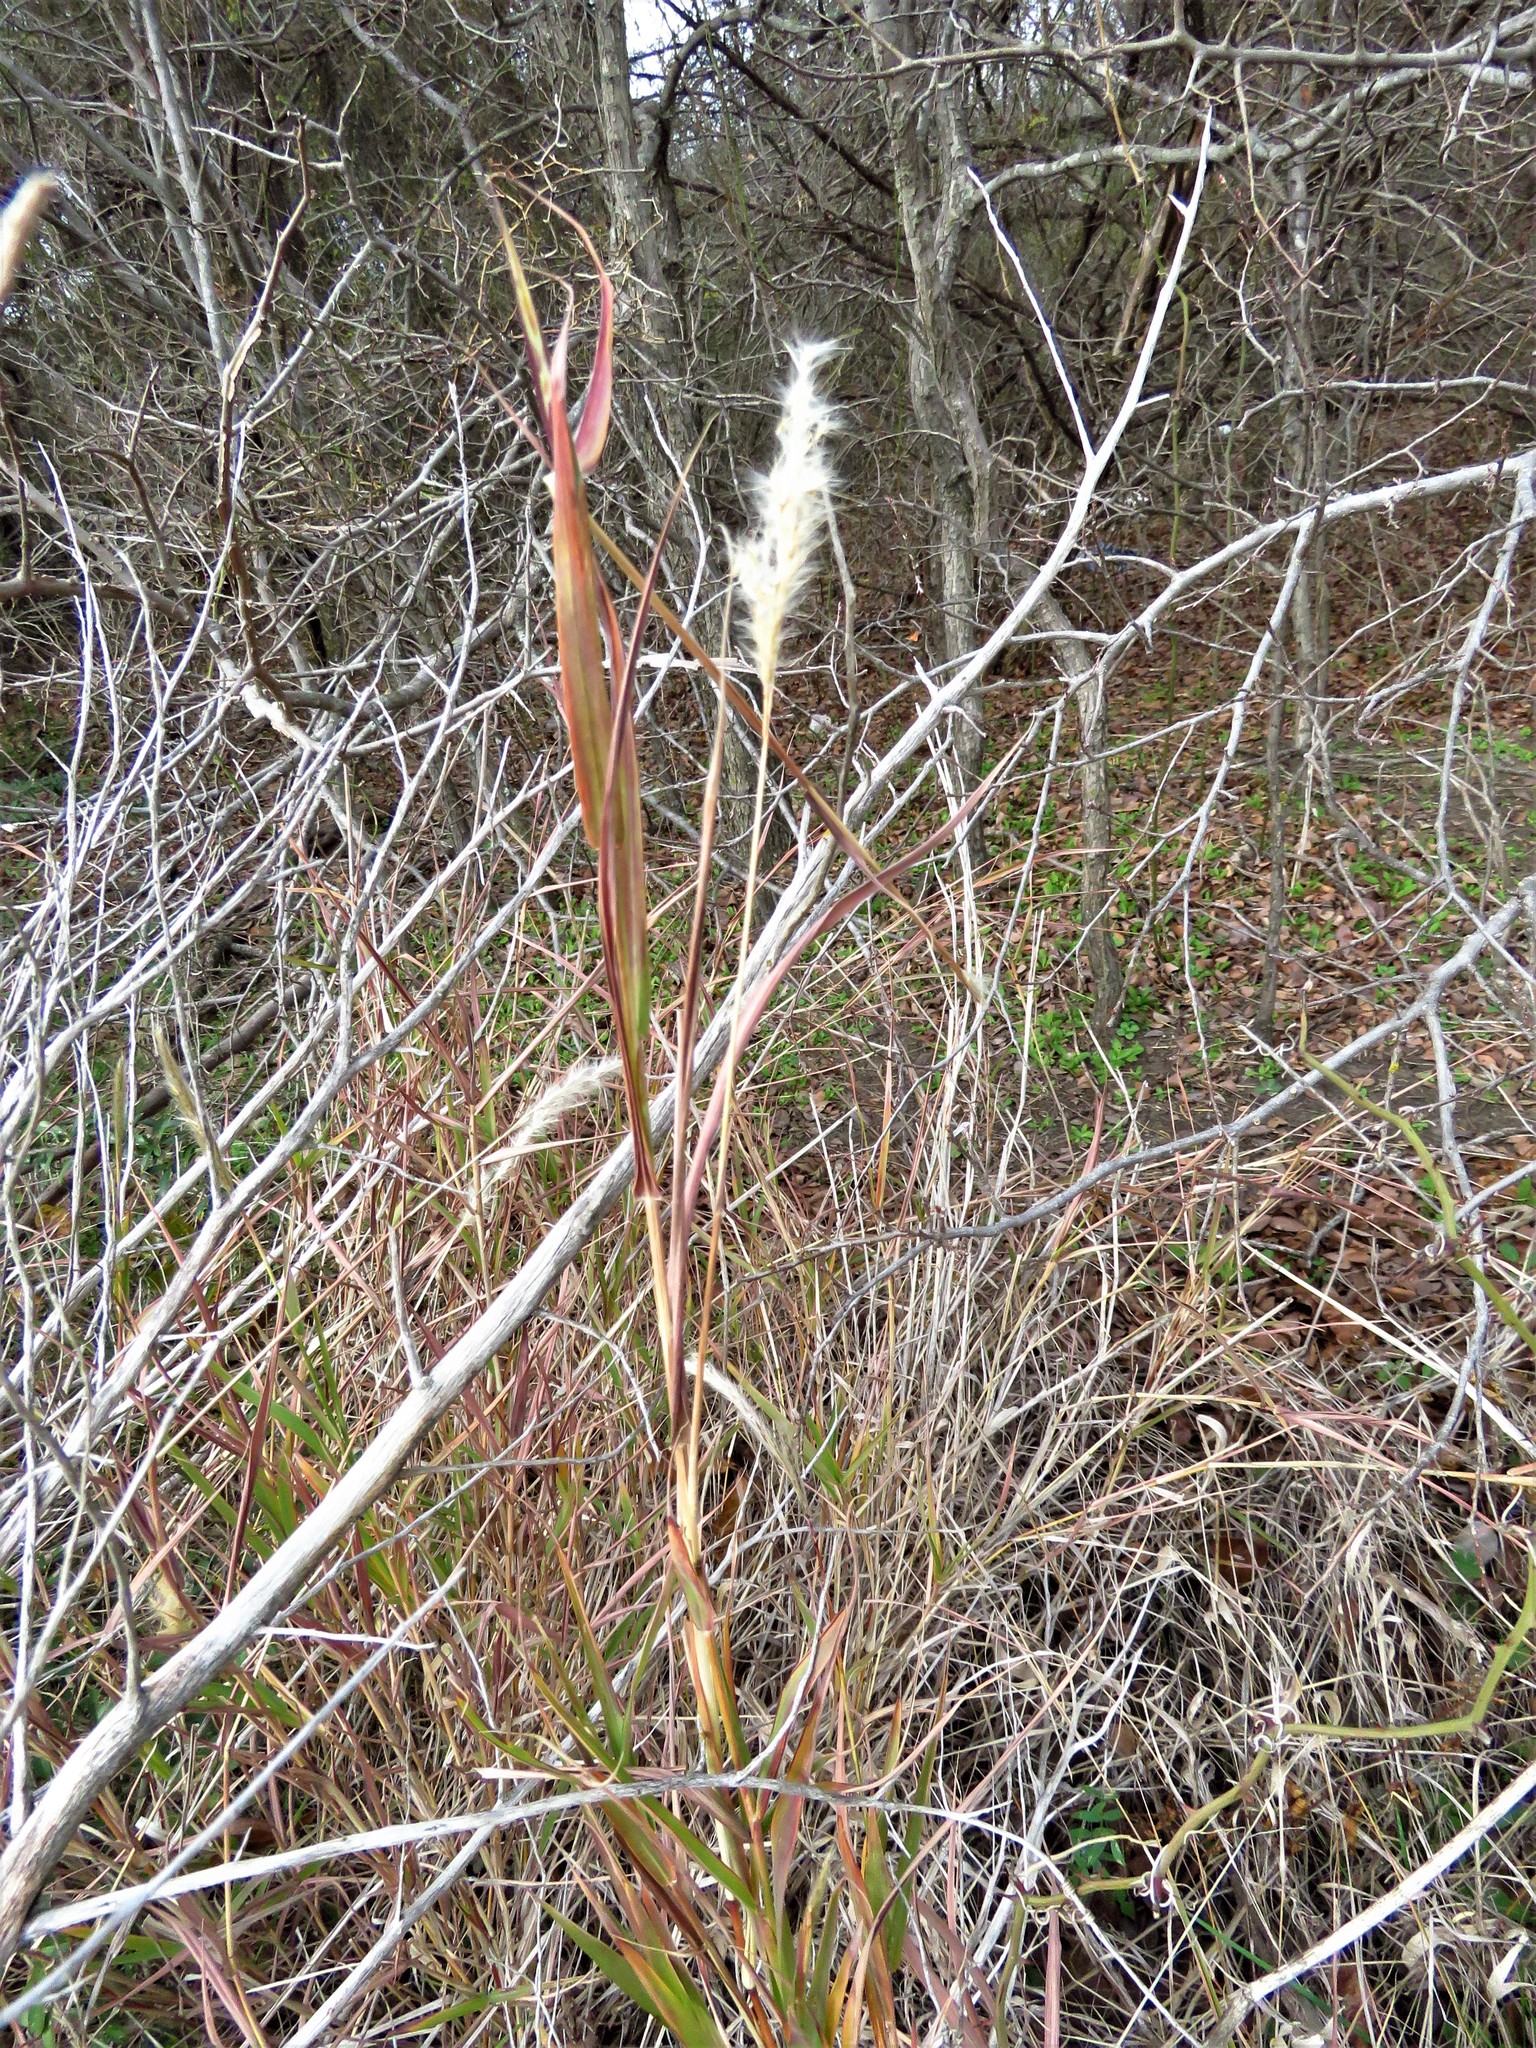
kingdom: Plantae
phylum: Tracheophyta
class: Liliopsida
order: Poales
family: Poaceae
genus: Bothriochloa
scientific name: Bothriochloa torreyana
